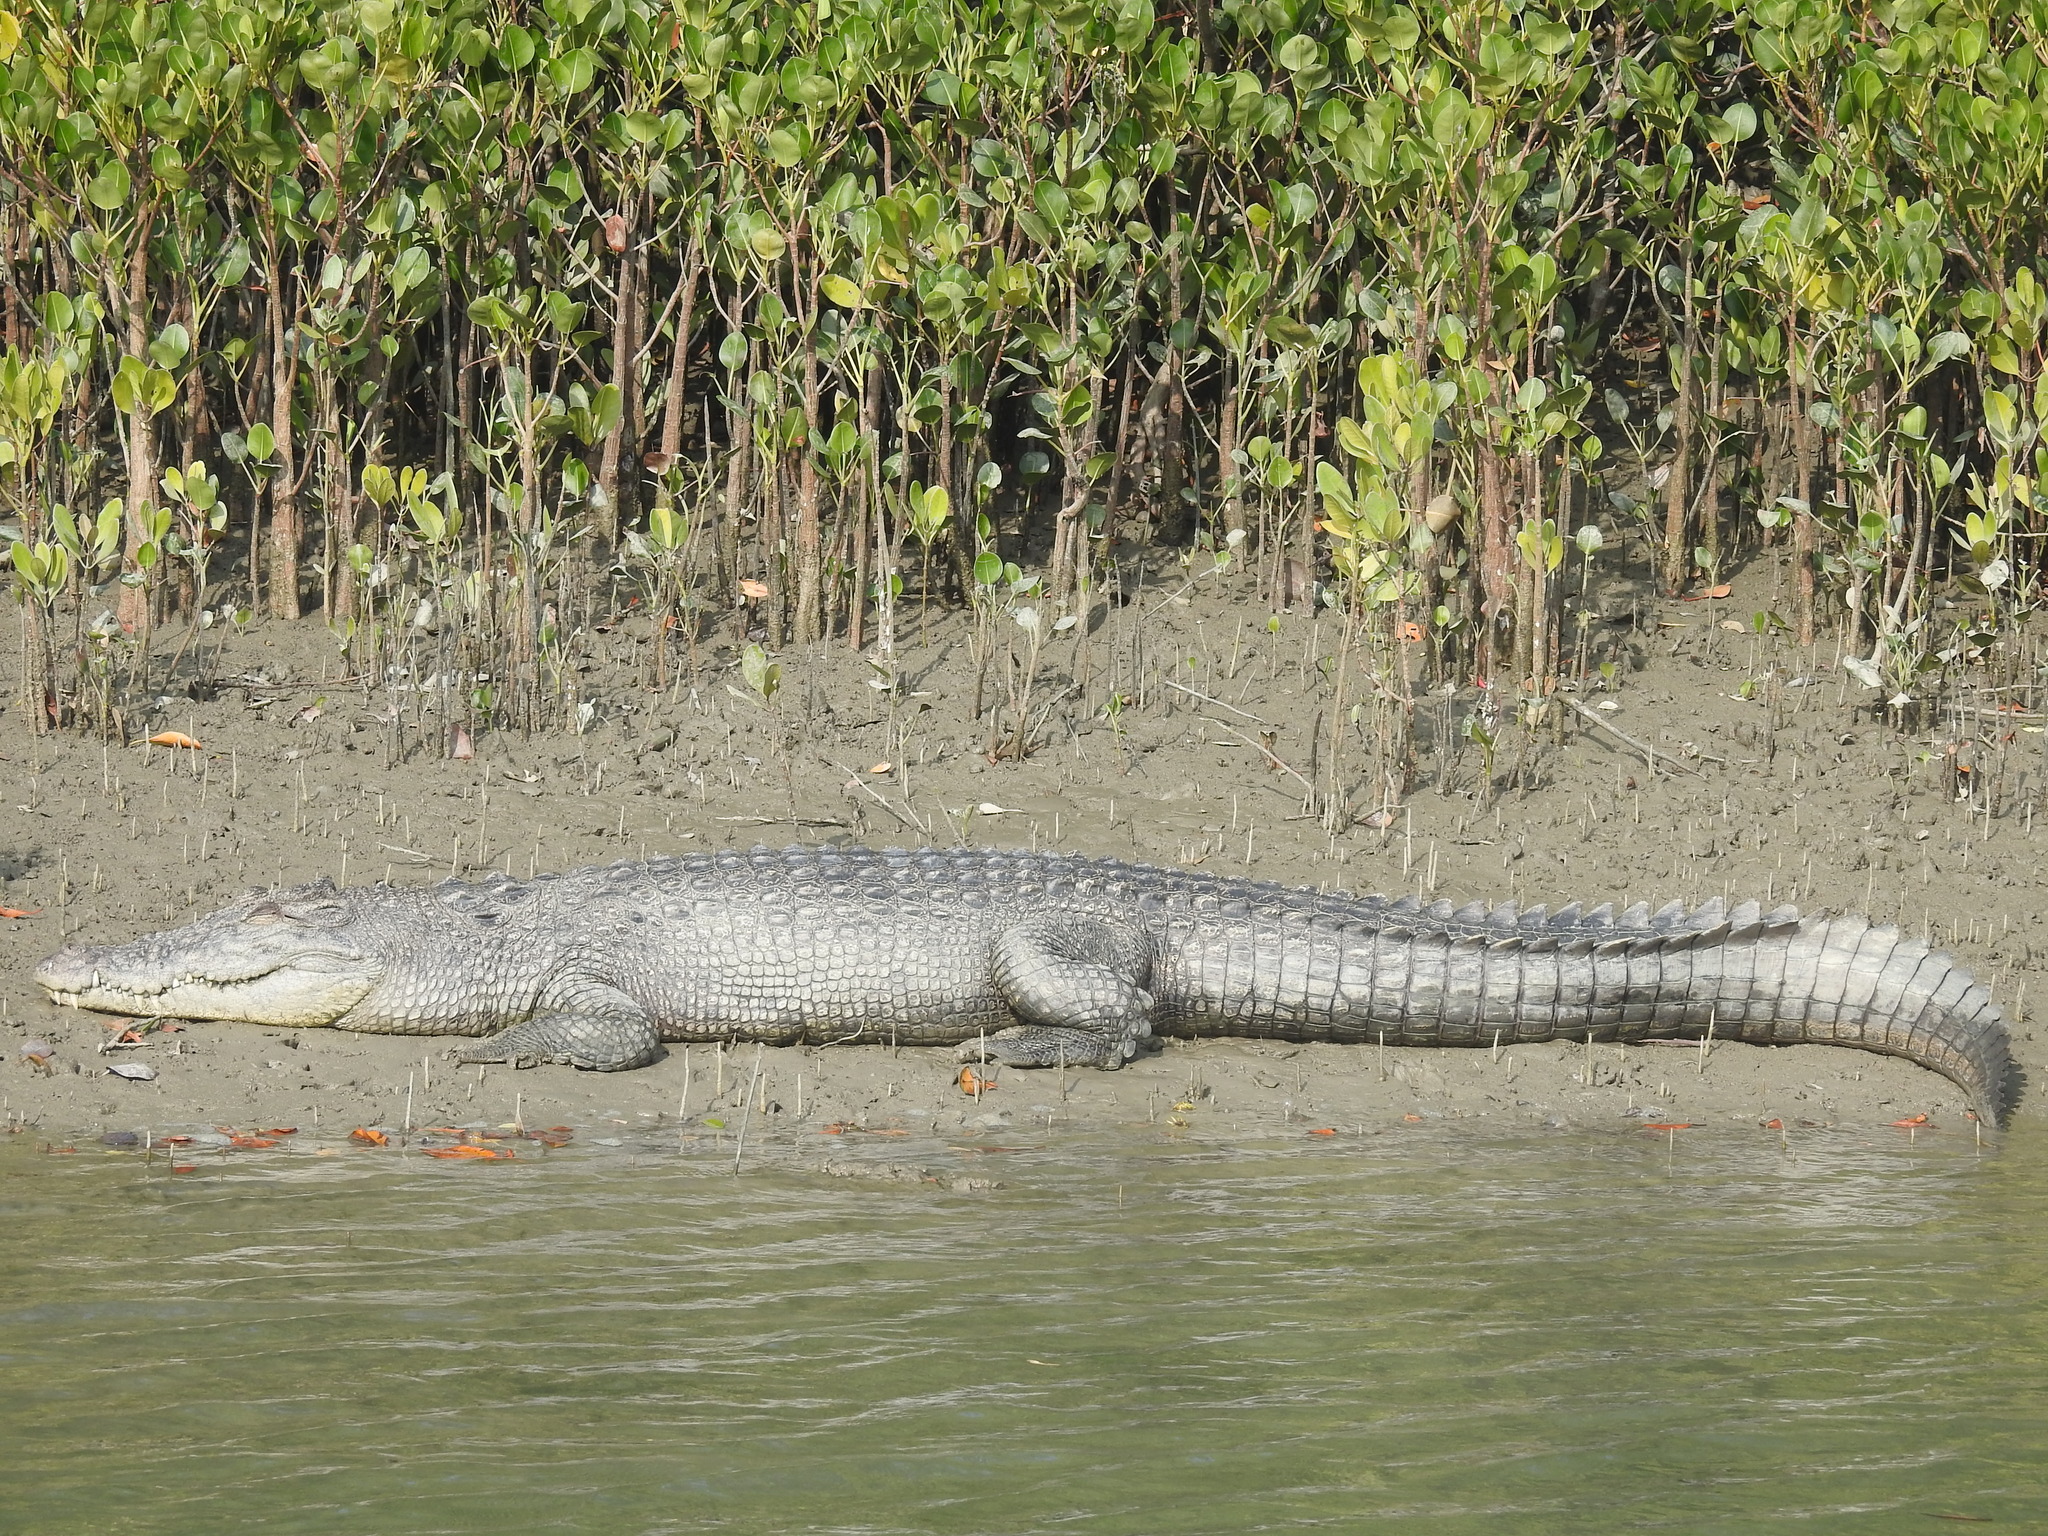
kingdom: Animalia
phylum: Chordata
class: Crocodylia
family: Crocodylidae
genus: Crocodylus
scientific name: Crocodylus porosus
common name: Saltwater crocodile
